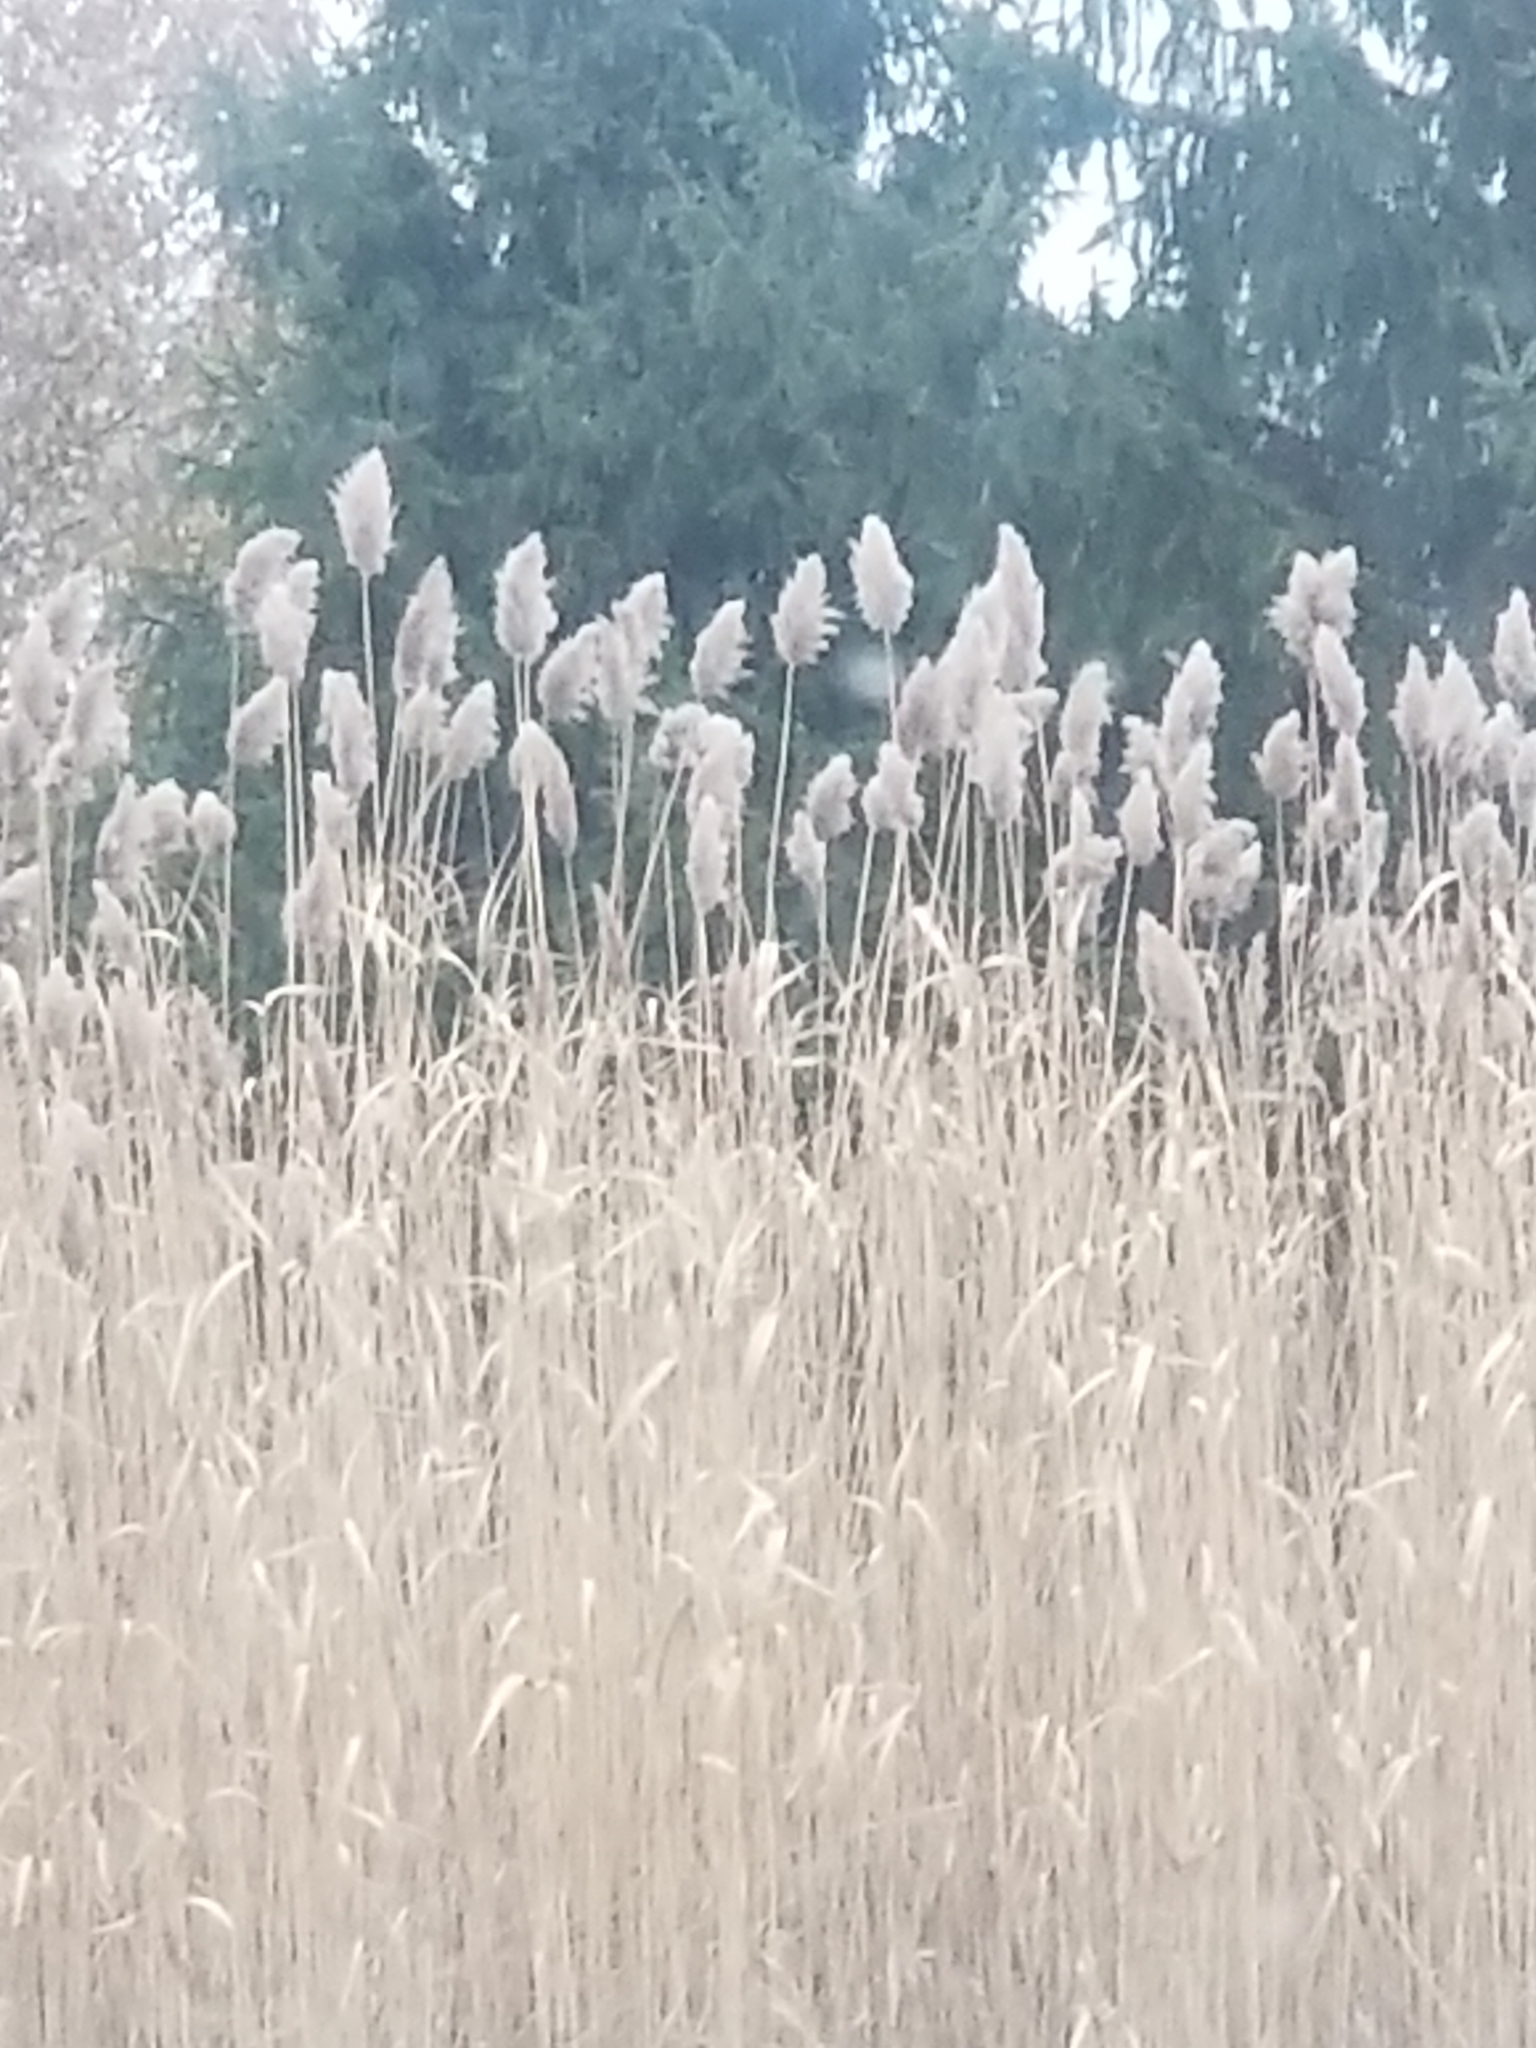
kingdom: Plantae
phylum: Tracheophyta
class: Liliopsida
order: Poales
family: Poaceae
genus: Phragmites
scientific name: Phragmites australis
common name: Common reed
